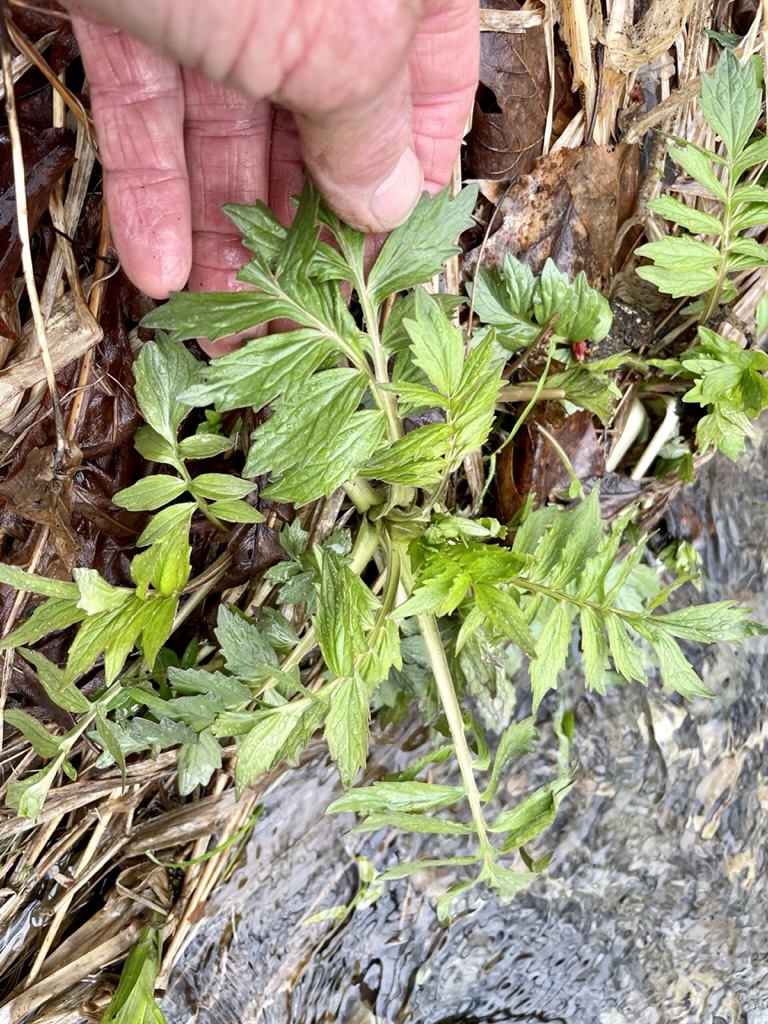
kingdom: Plantae
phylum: Tracheophyta
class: Magnoliopsida
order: Dipsacales
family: Caprifoliaceae
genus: Valeriana
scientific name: Valeriana officinalis
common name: Common valerian
